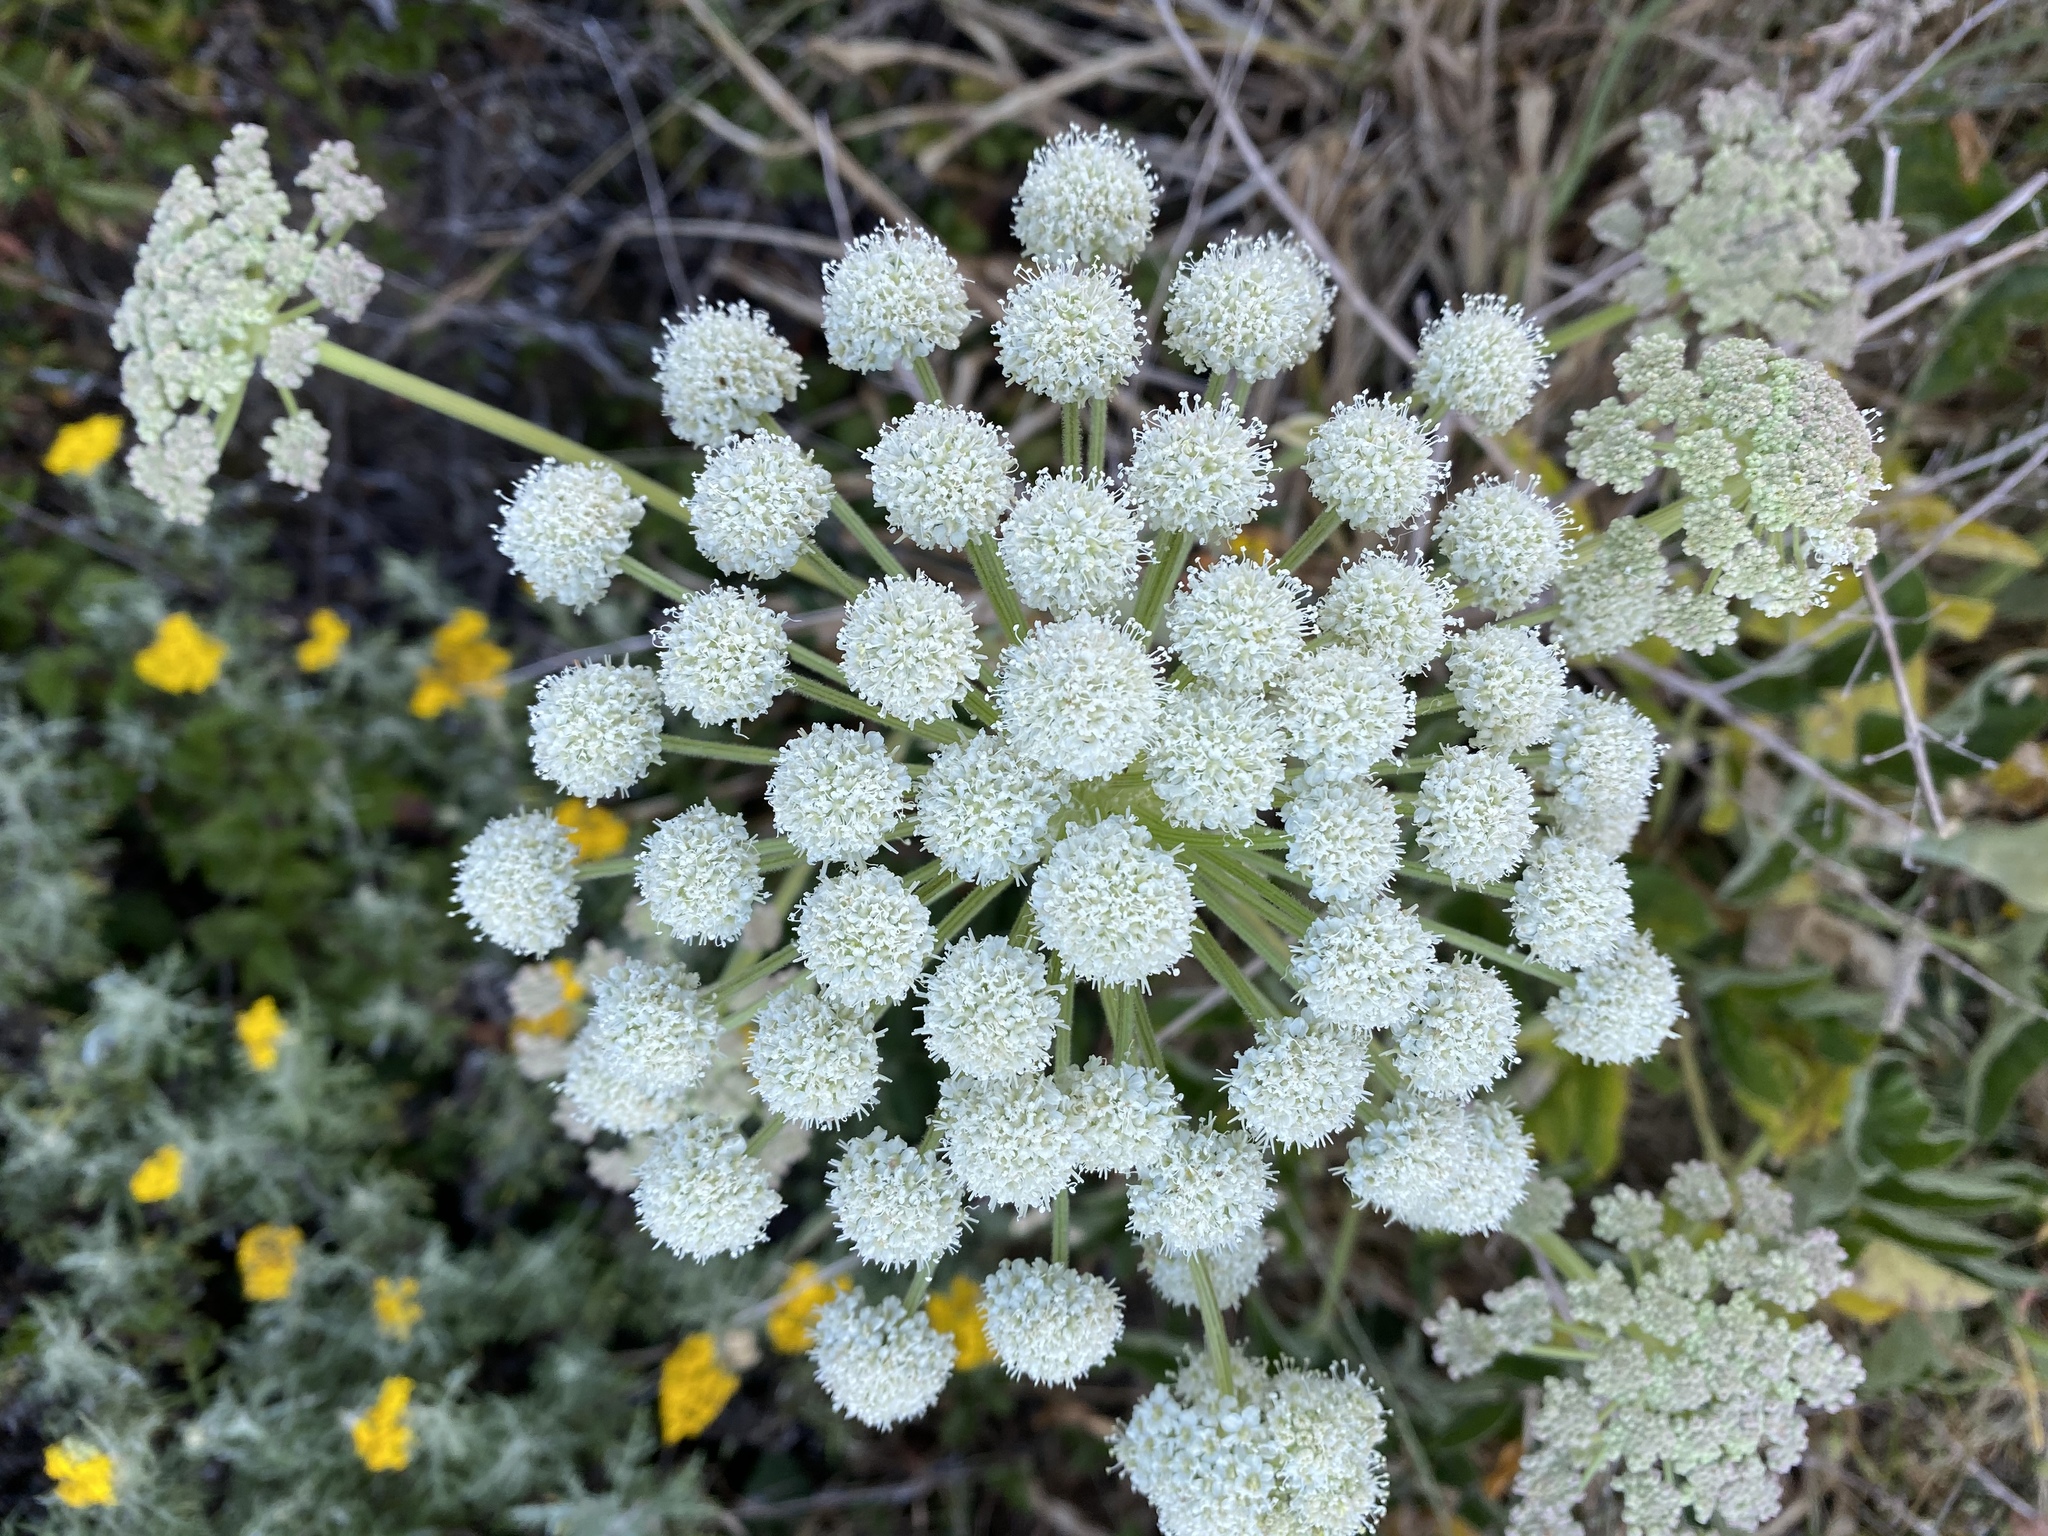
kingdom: Plantae
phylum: Tracheophyta
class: Magnoliopsida
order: Apiales
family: Apiaceae
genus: Angelica
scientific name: Angelica hendersonii
